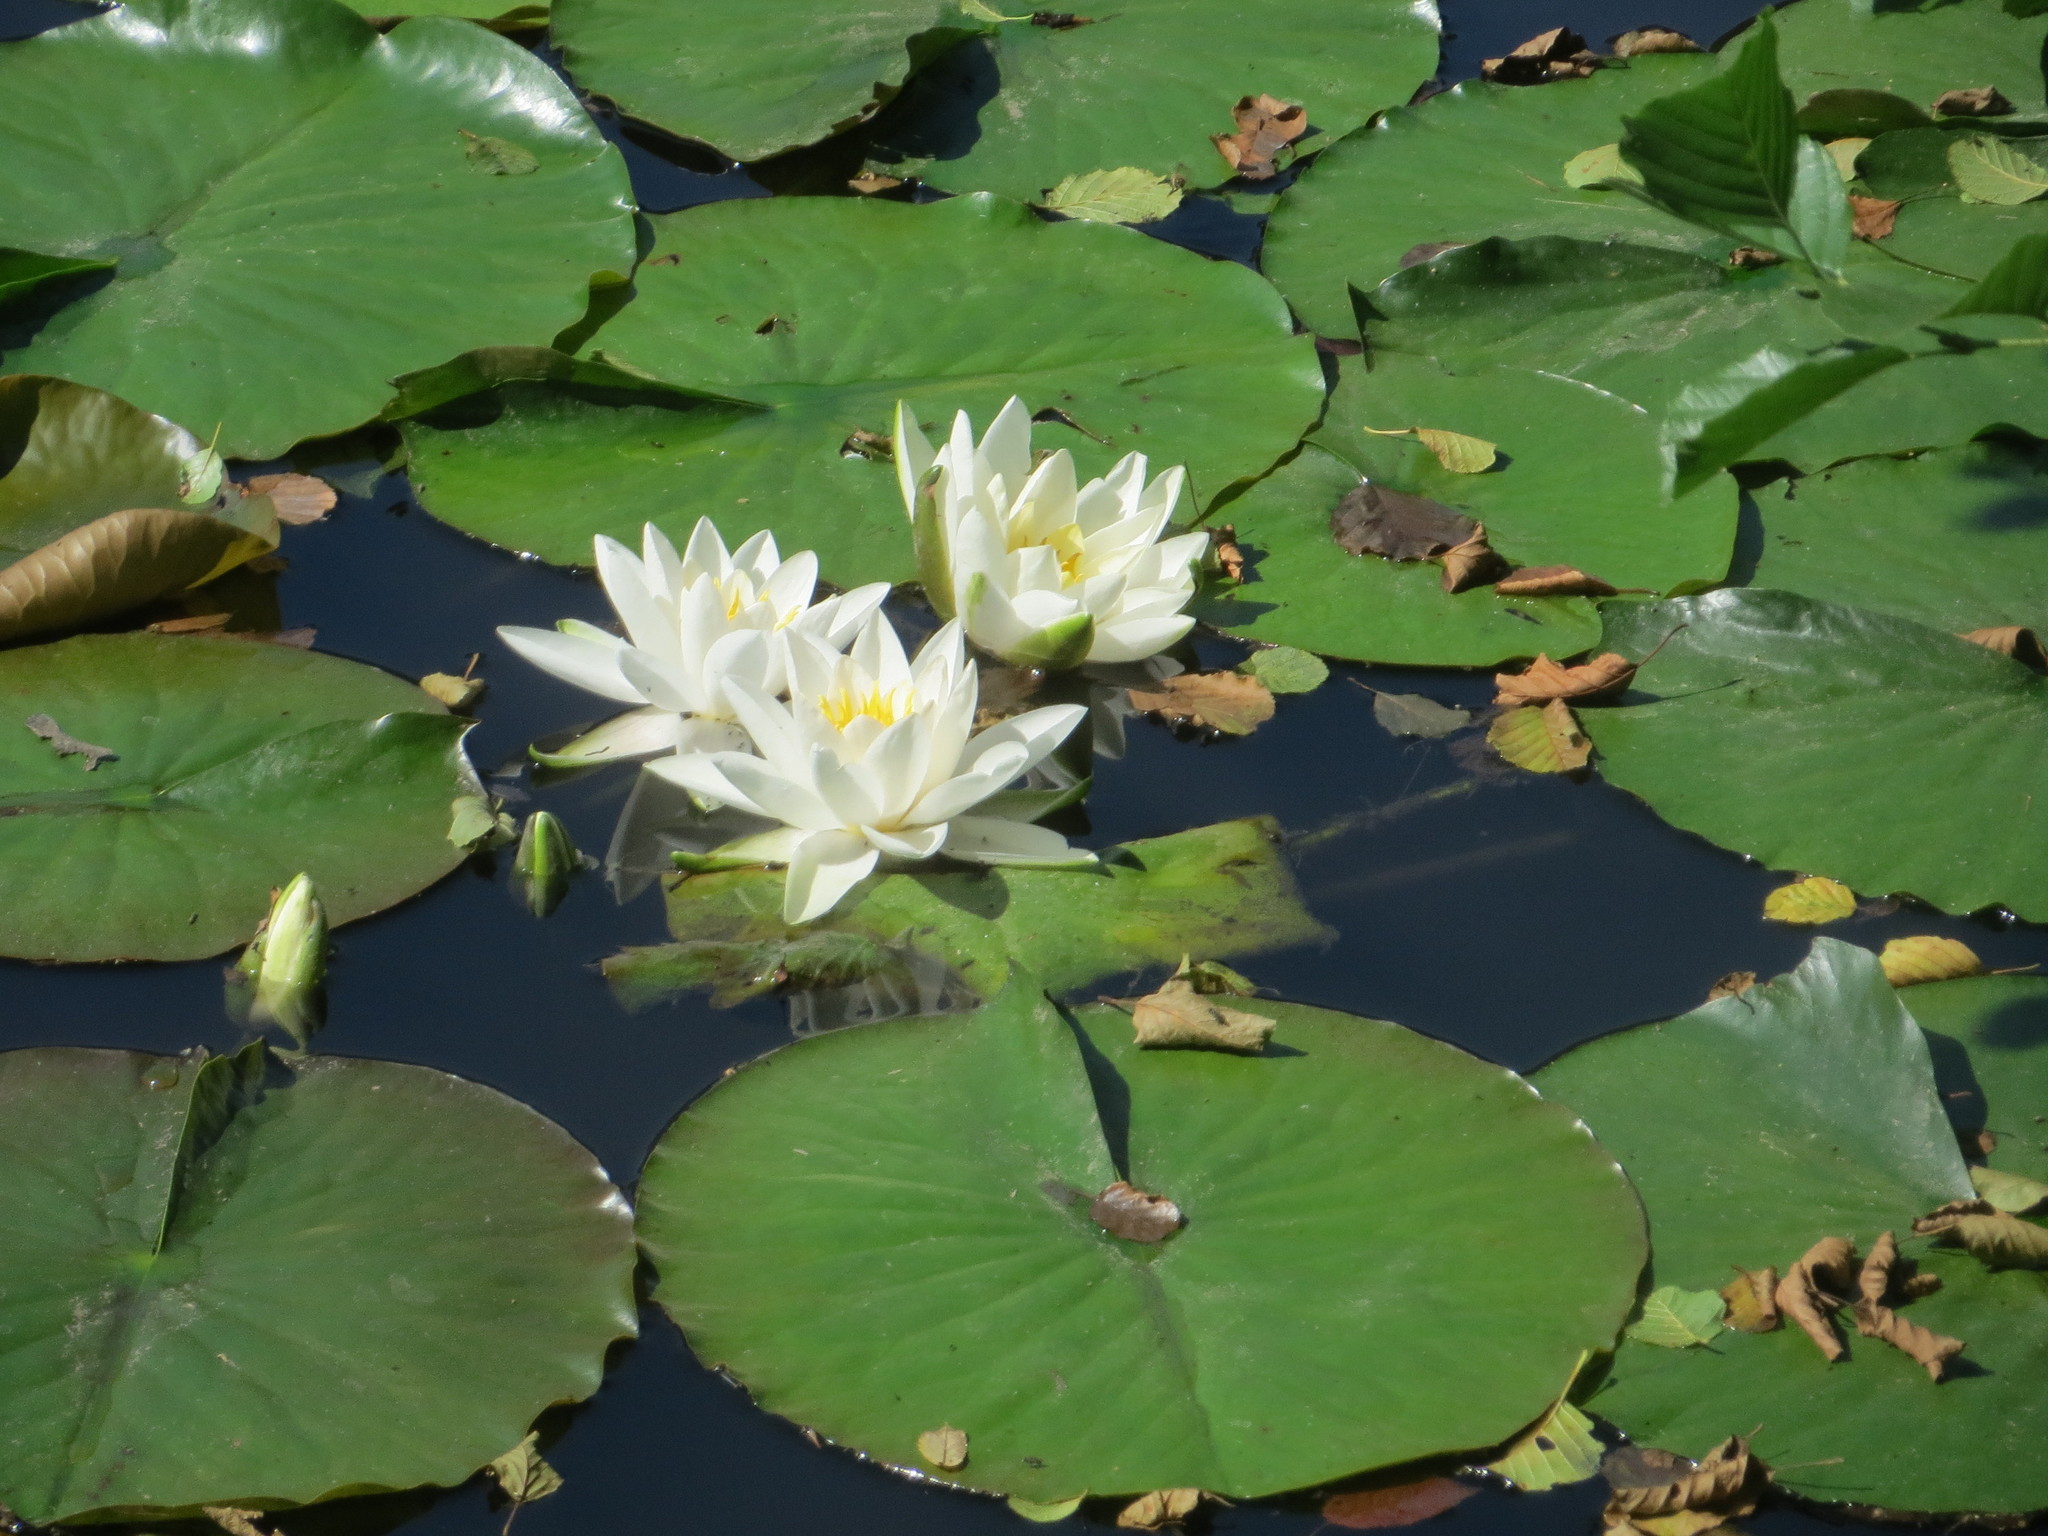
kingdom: Plantae
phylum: Tracheophyta
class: Magnoliopsida
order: Nymphaeales
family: Nymphaeaceae
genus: Nymphaea
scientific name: Nymphaea alba
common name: White water-lily
